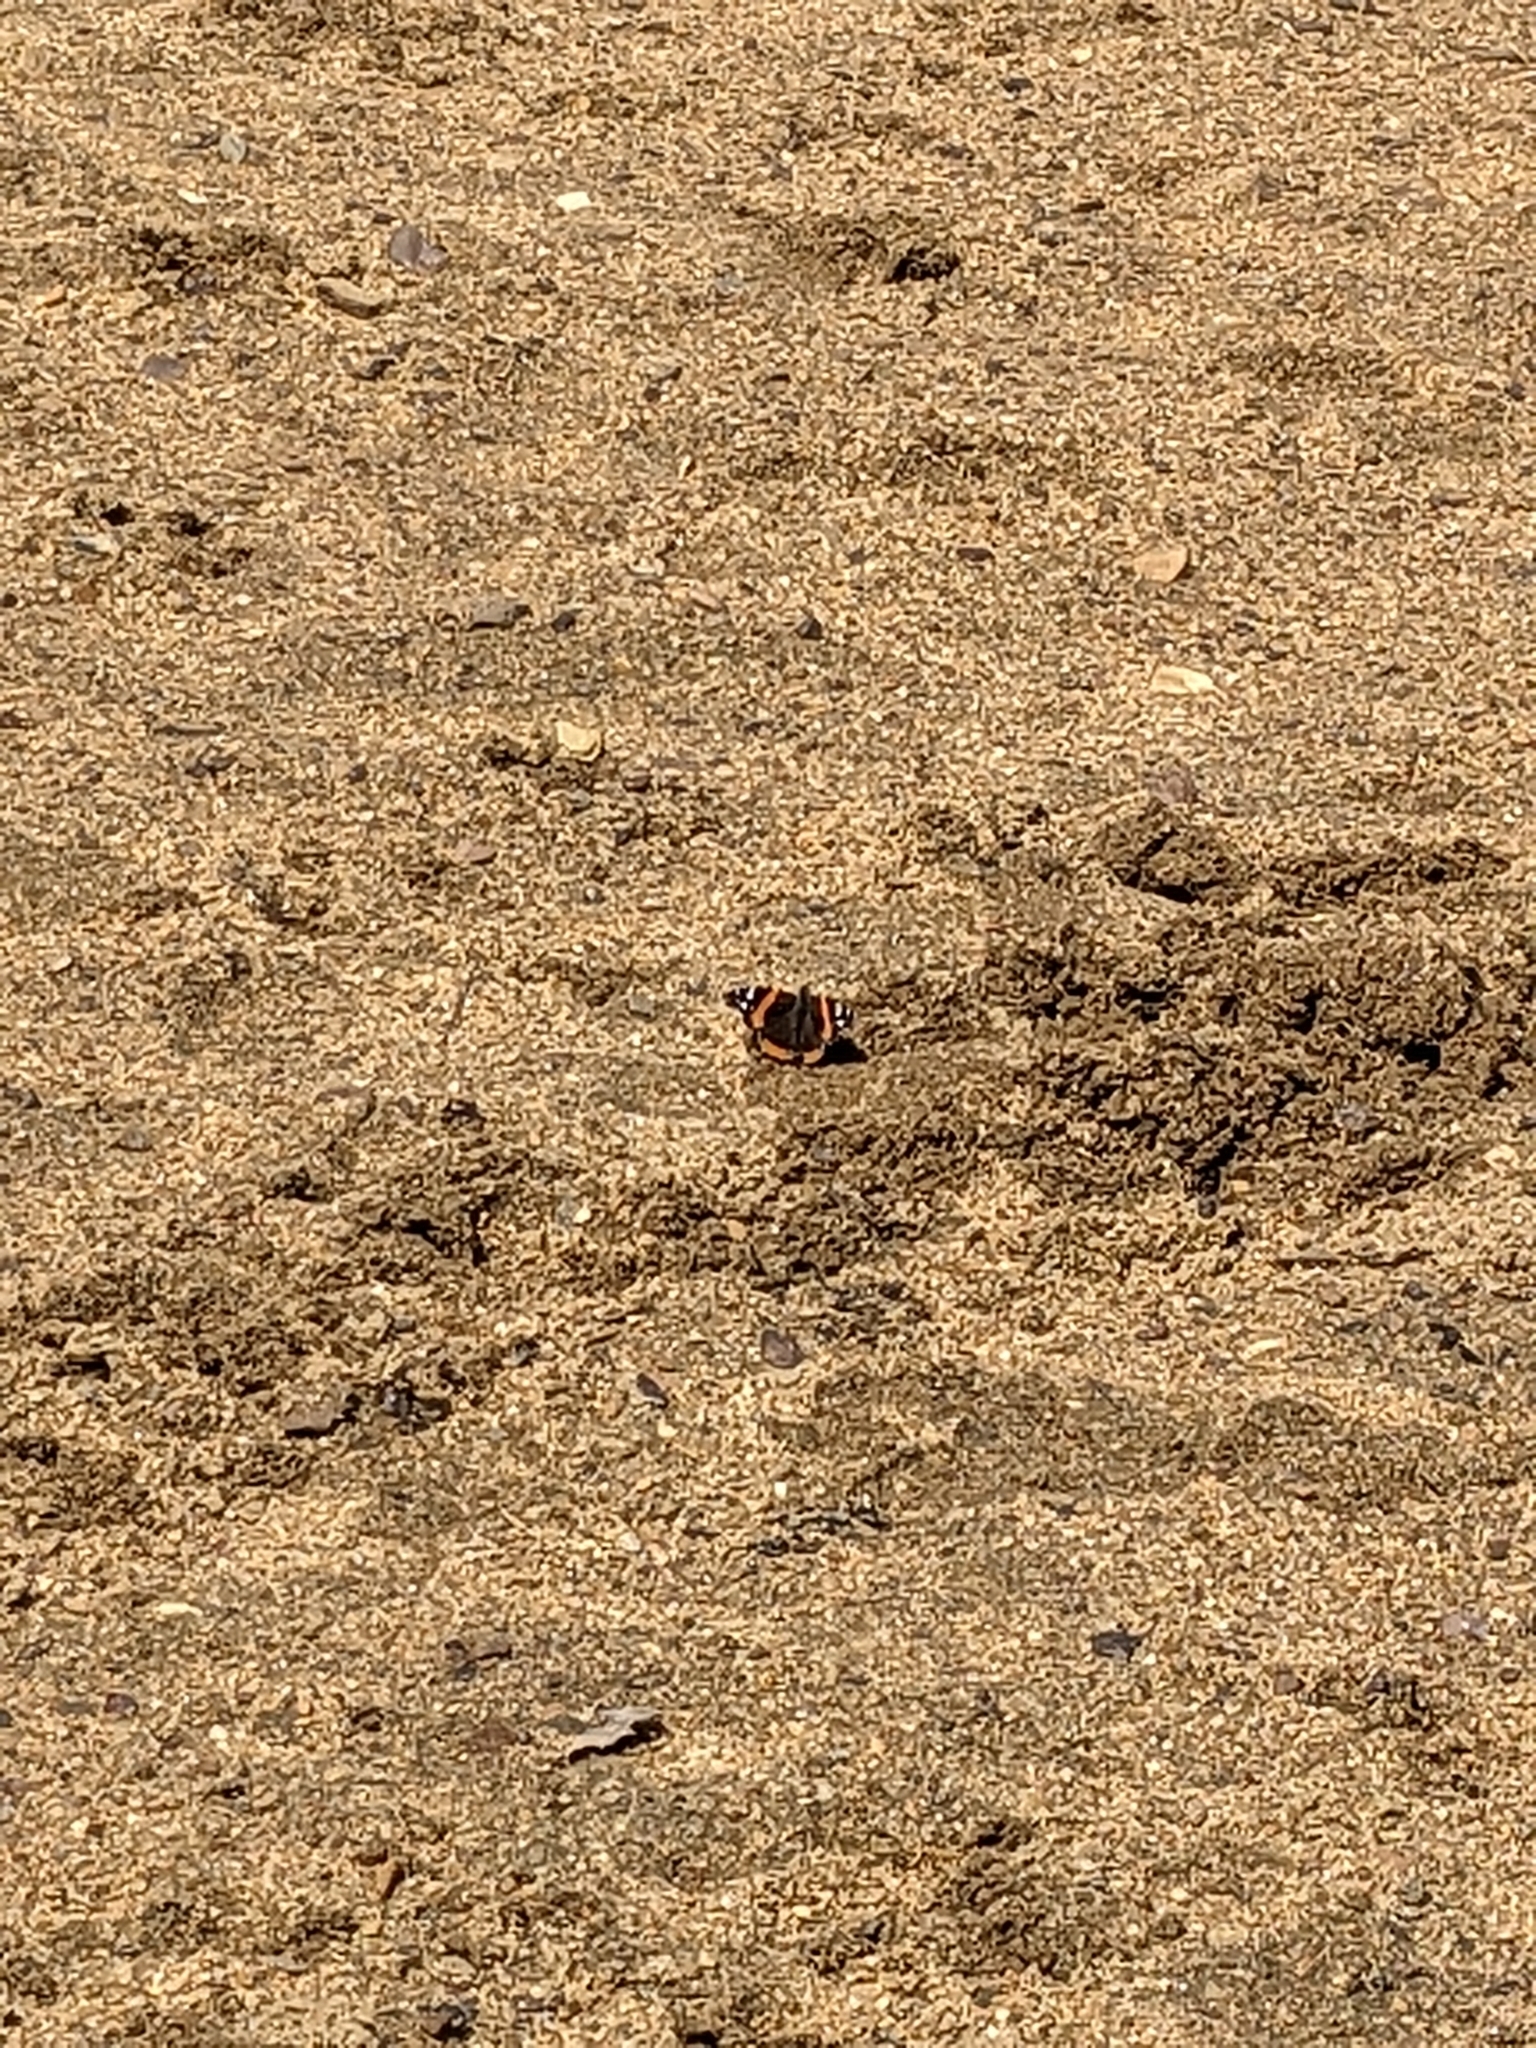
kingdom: Animalia
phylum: Arthropoda
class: Insecta
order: Lepidoptera
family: Nymphalidae
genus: Vanessa
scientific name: Vanessa atalanta
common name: Red admiral
